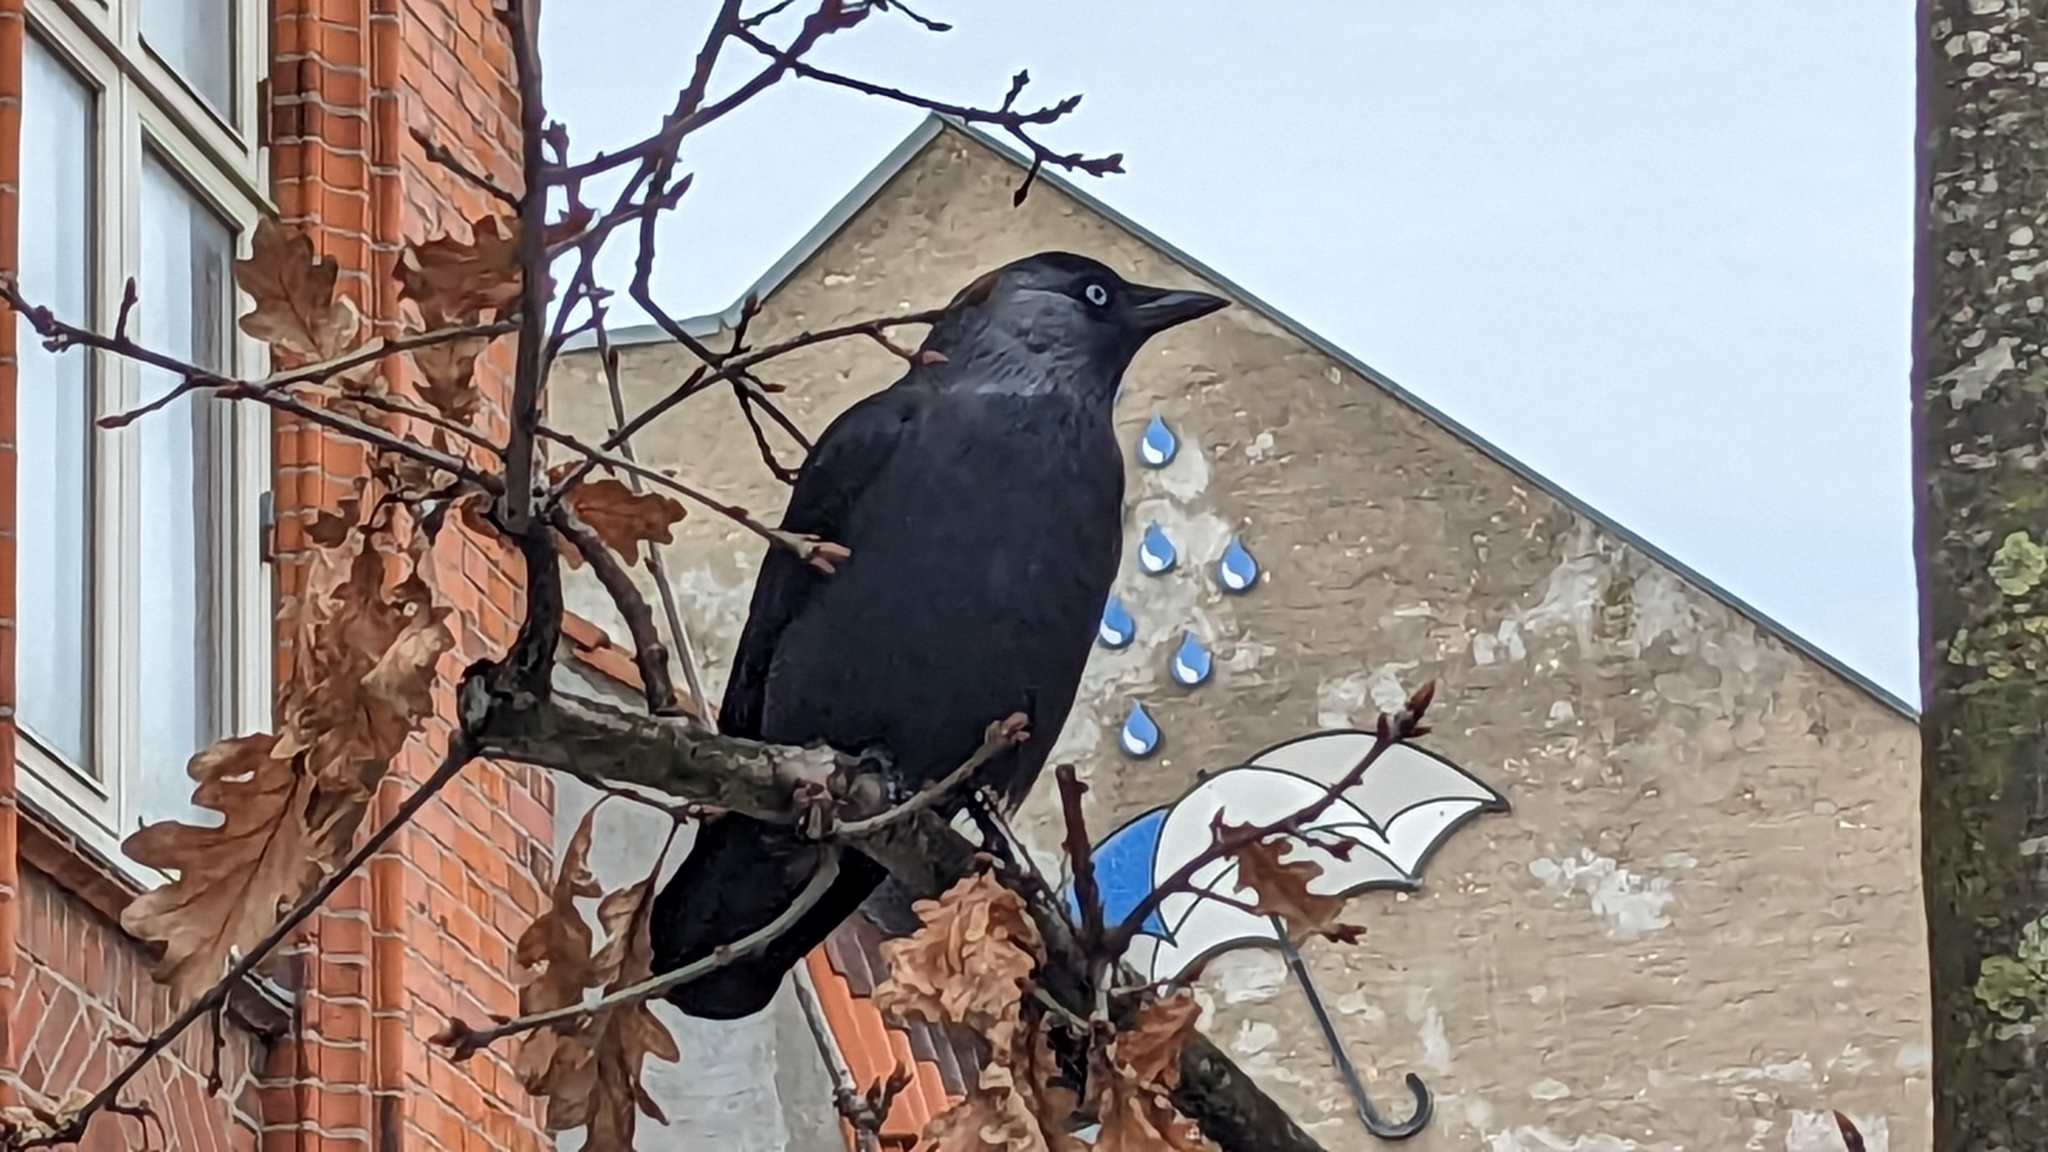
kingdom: Animalia
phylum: Chordata
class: Aves
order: Passeriformes
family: Corvidae
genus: Coloeus
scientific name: Coloeus monedula
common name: Western jackdaw
